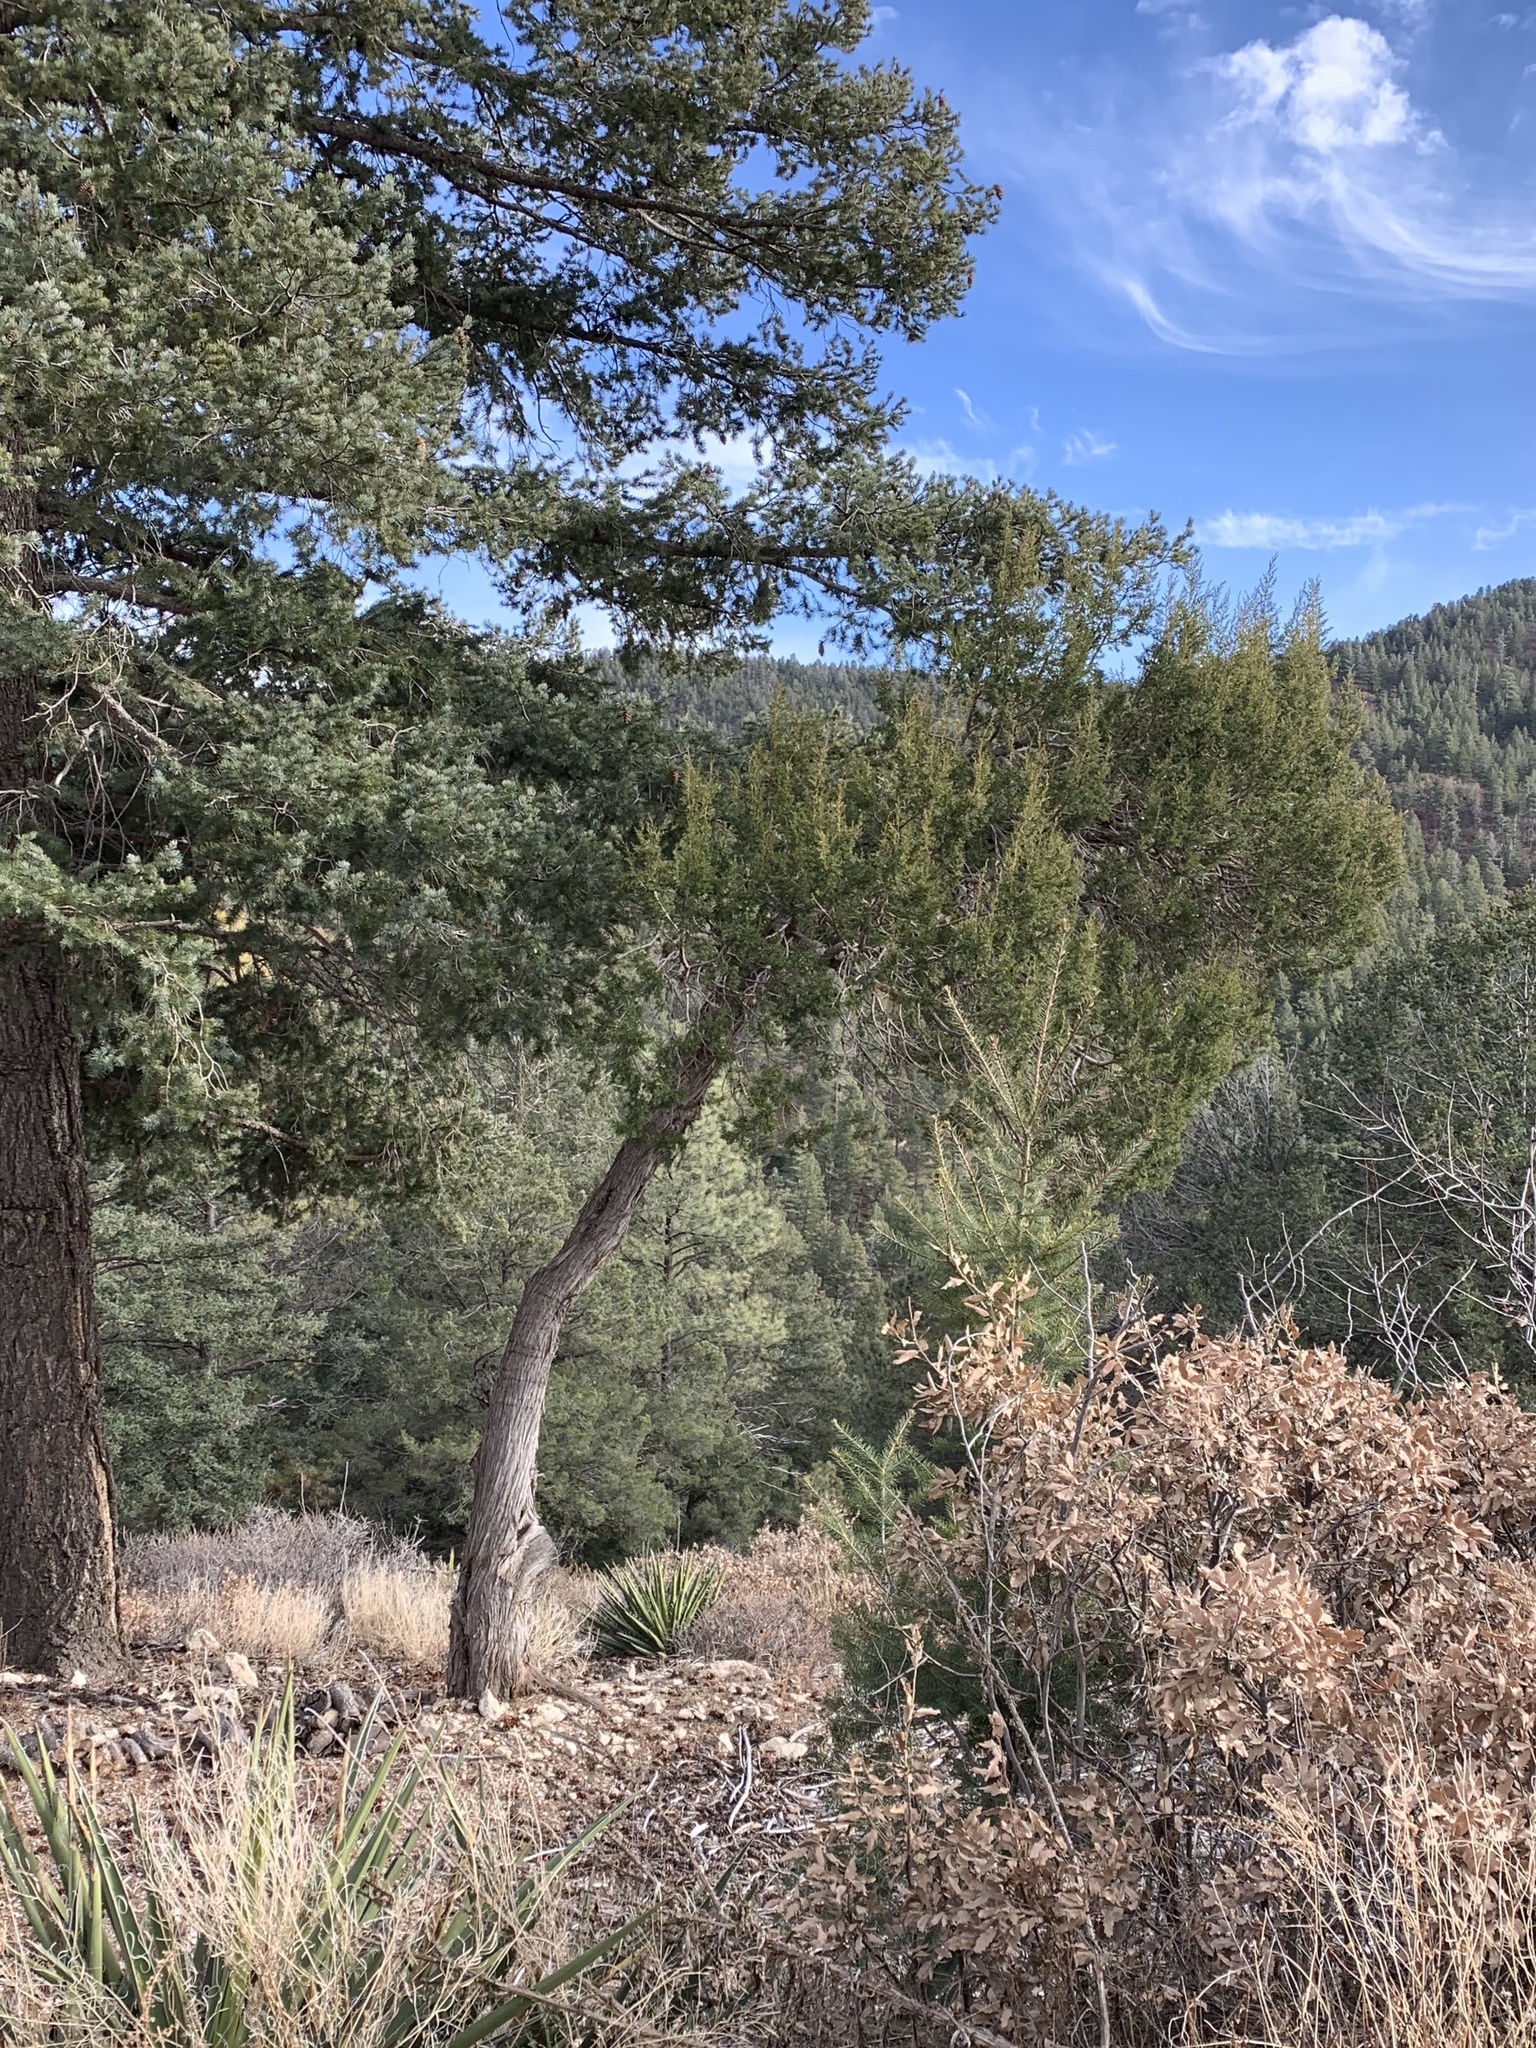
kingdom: Plantae
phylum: Tracheophyta
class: Pinopsida
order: Pinales
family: Cupressaceae
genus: Juniperus
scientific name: Juniperus monosperma
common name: One-seed juniper
